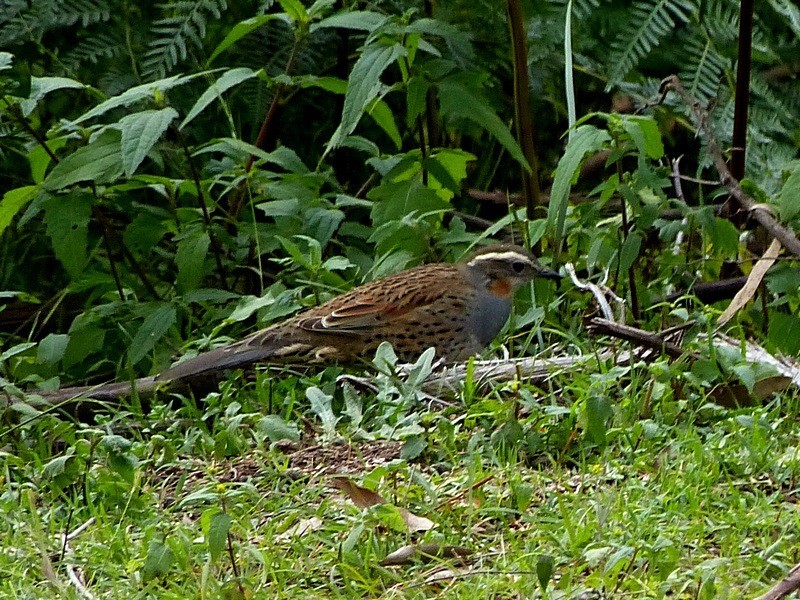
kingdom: Animalia
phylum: Chordata
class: Aves
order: Passeriformes
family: Psophodidae
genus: Cinclosoma
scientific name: Cinclosoma punctatum
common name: Spotted quail-thrush
